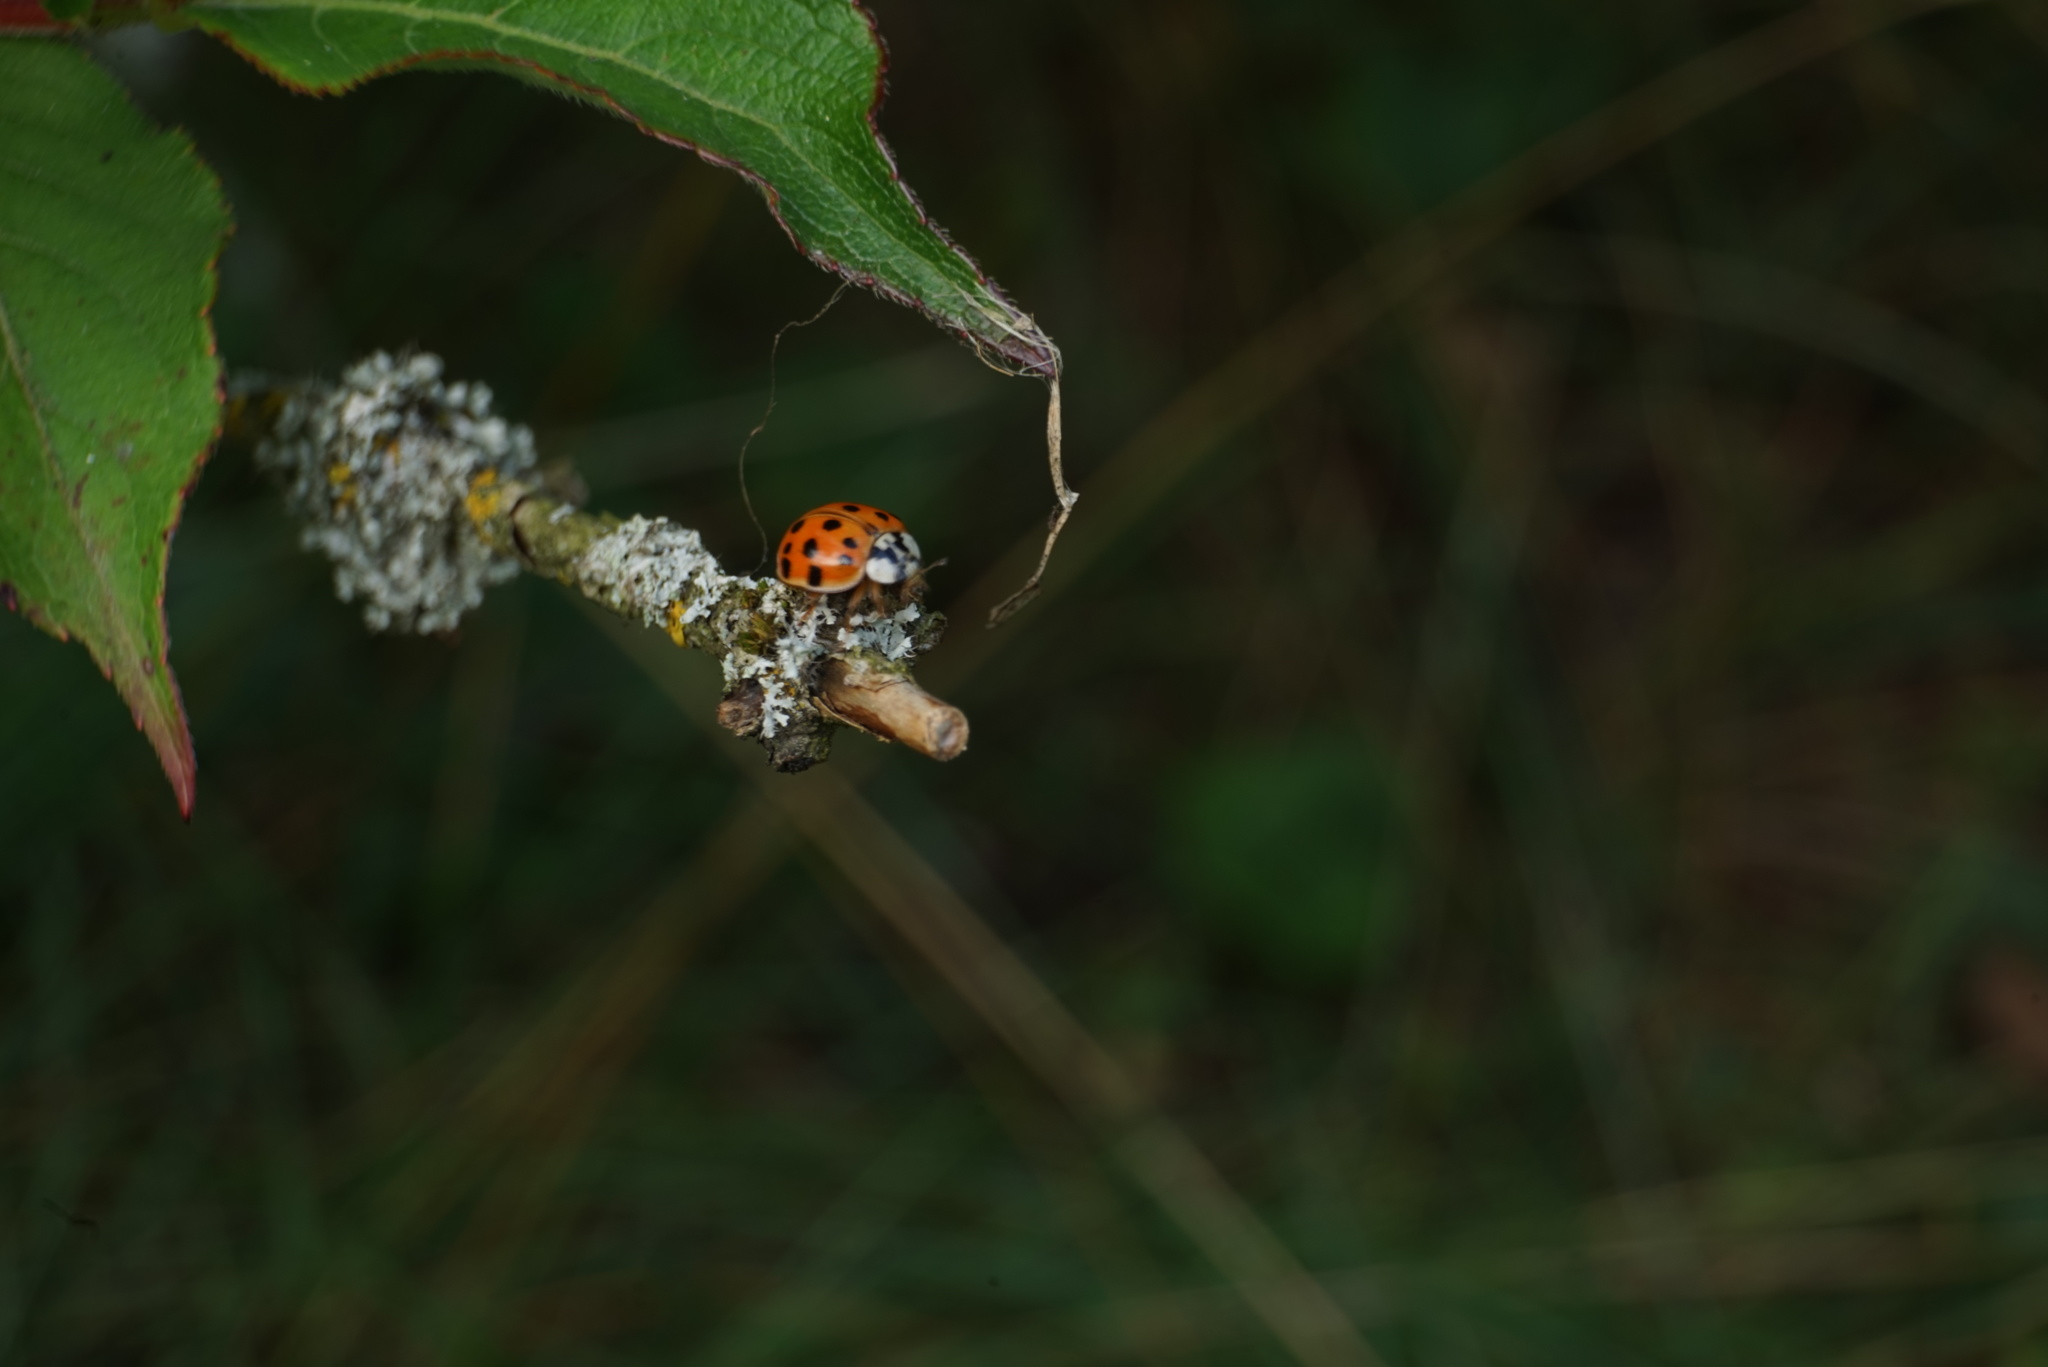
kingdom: Animalia
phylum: Arthropoda
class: Insecta
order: Coleoptera
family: Coccinellidae
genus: Harmonia
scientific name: Harmonia axyridis
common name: Harlequin ladybird
